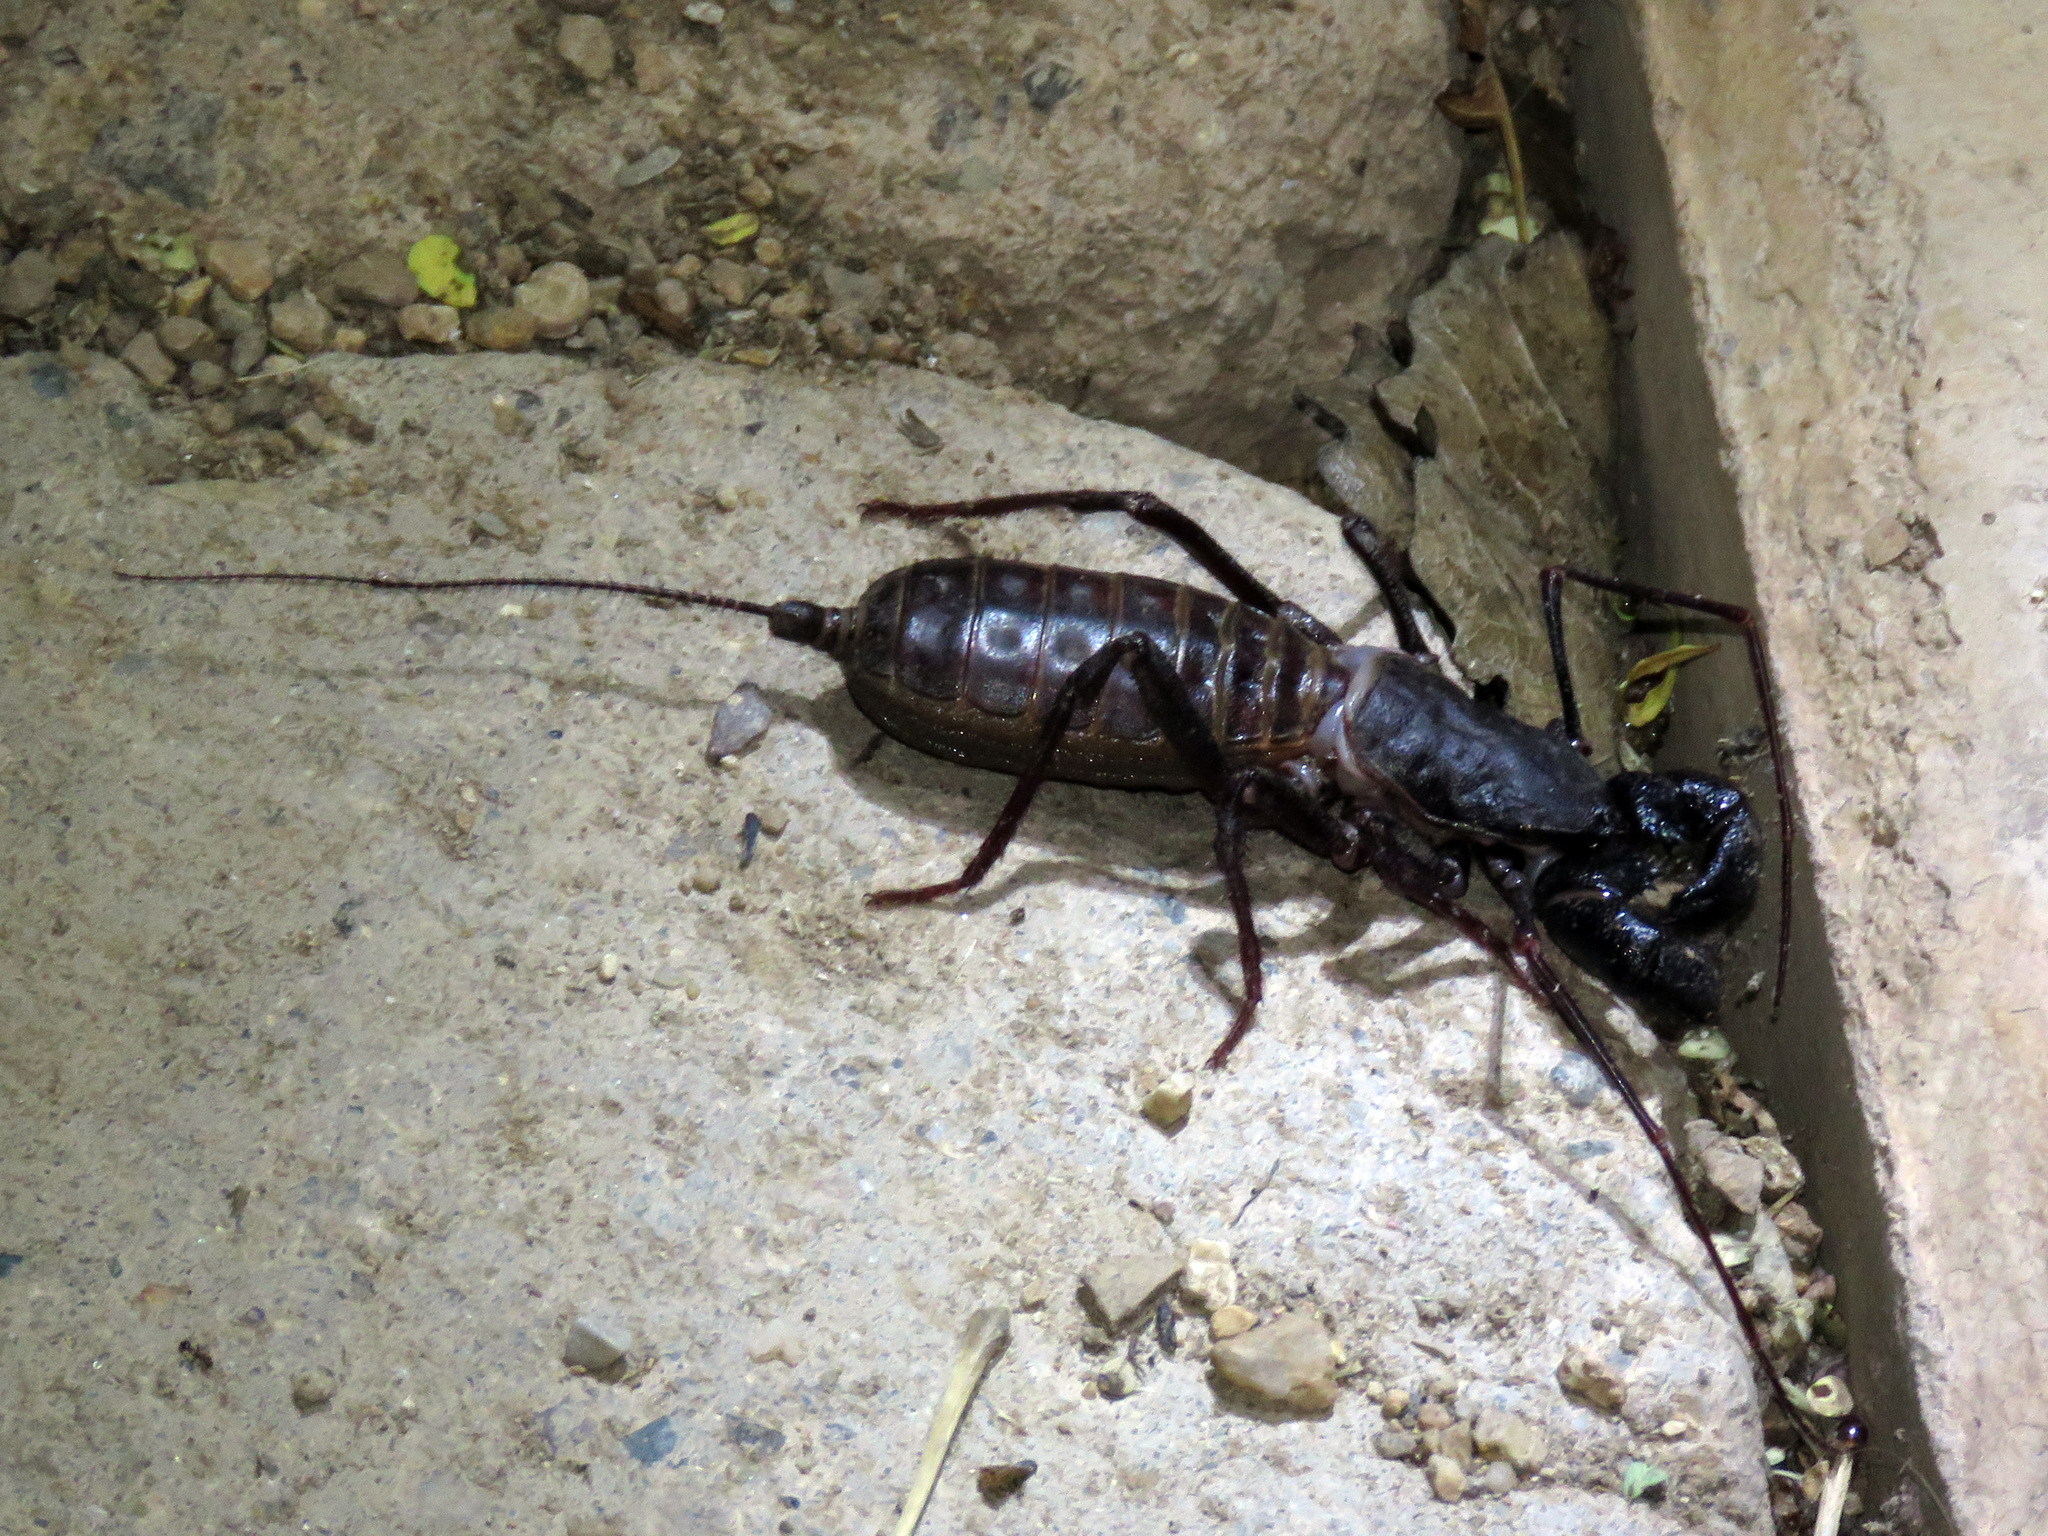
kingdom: Animalia
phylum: Arthropoda
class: Arachnida
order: Uropygi
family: Thelyphonidae
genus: Mastigoproctus
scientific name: Mastigoproctus tohono
